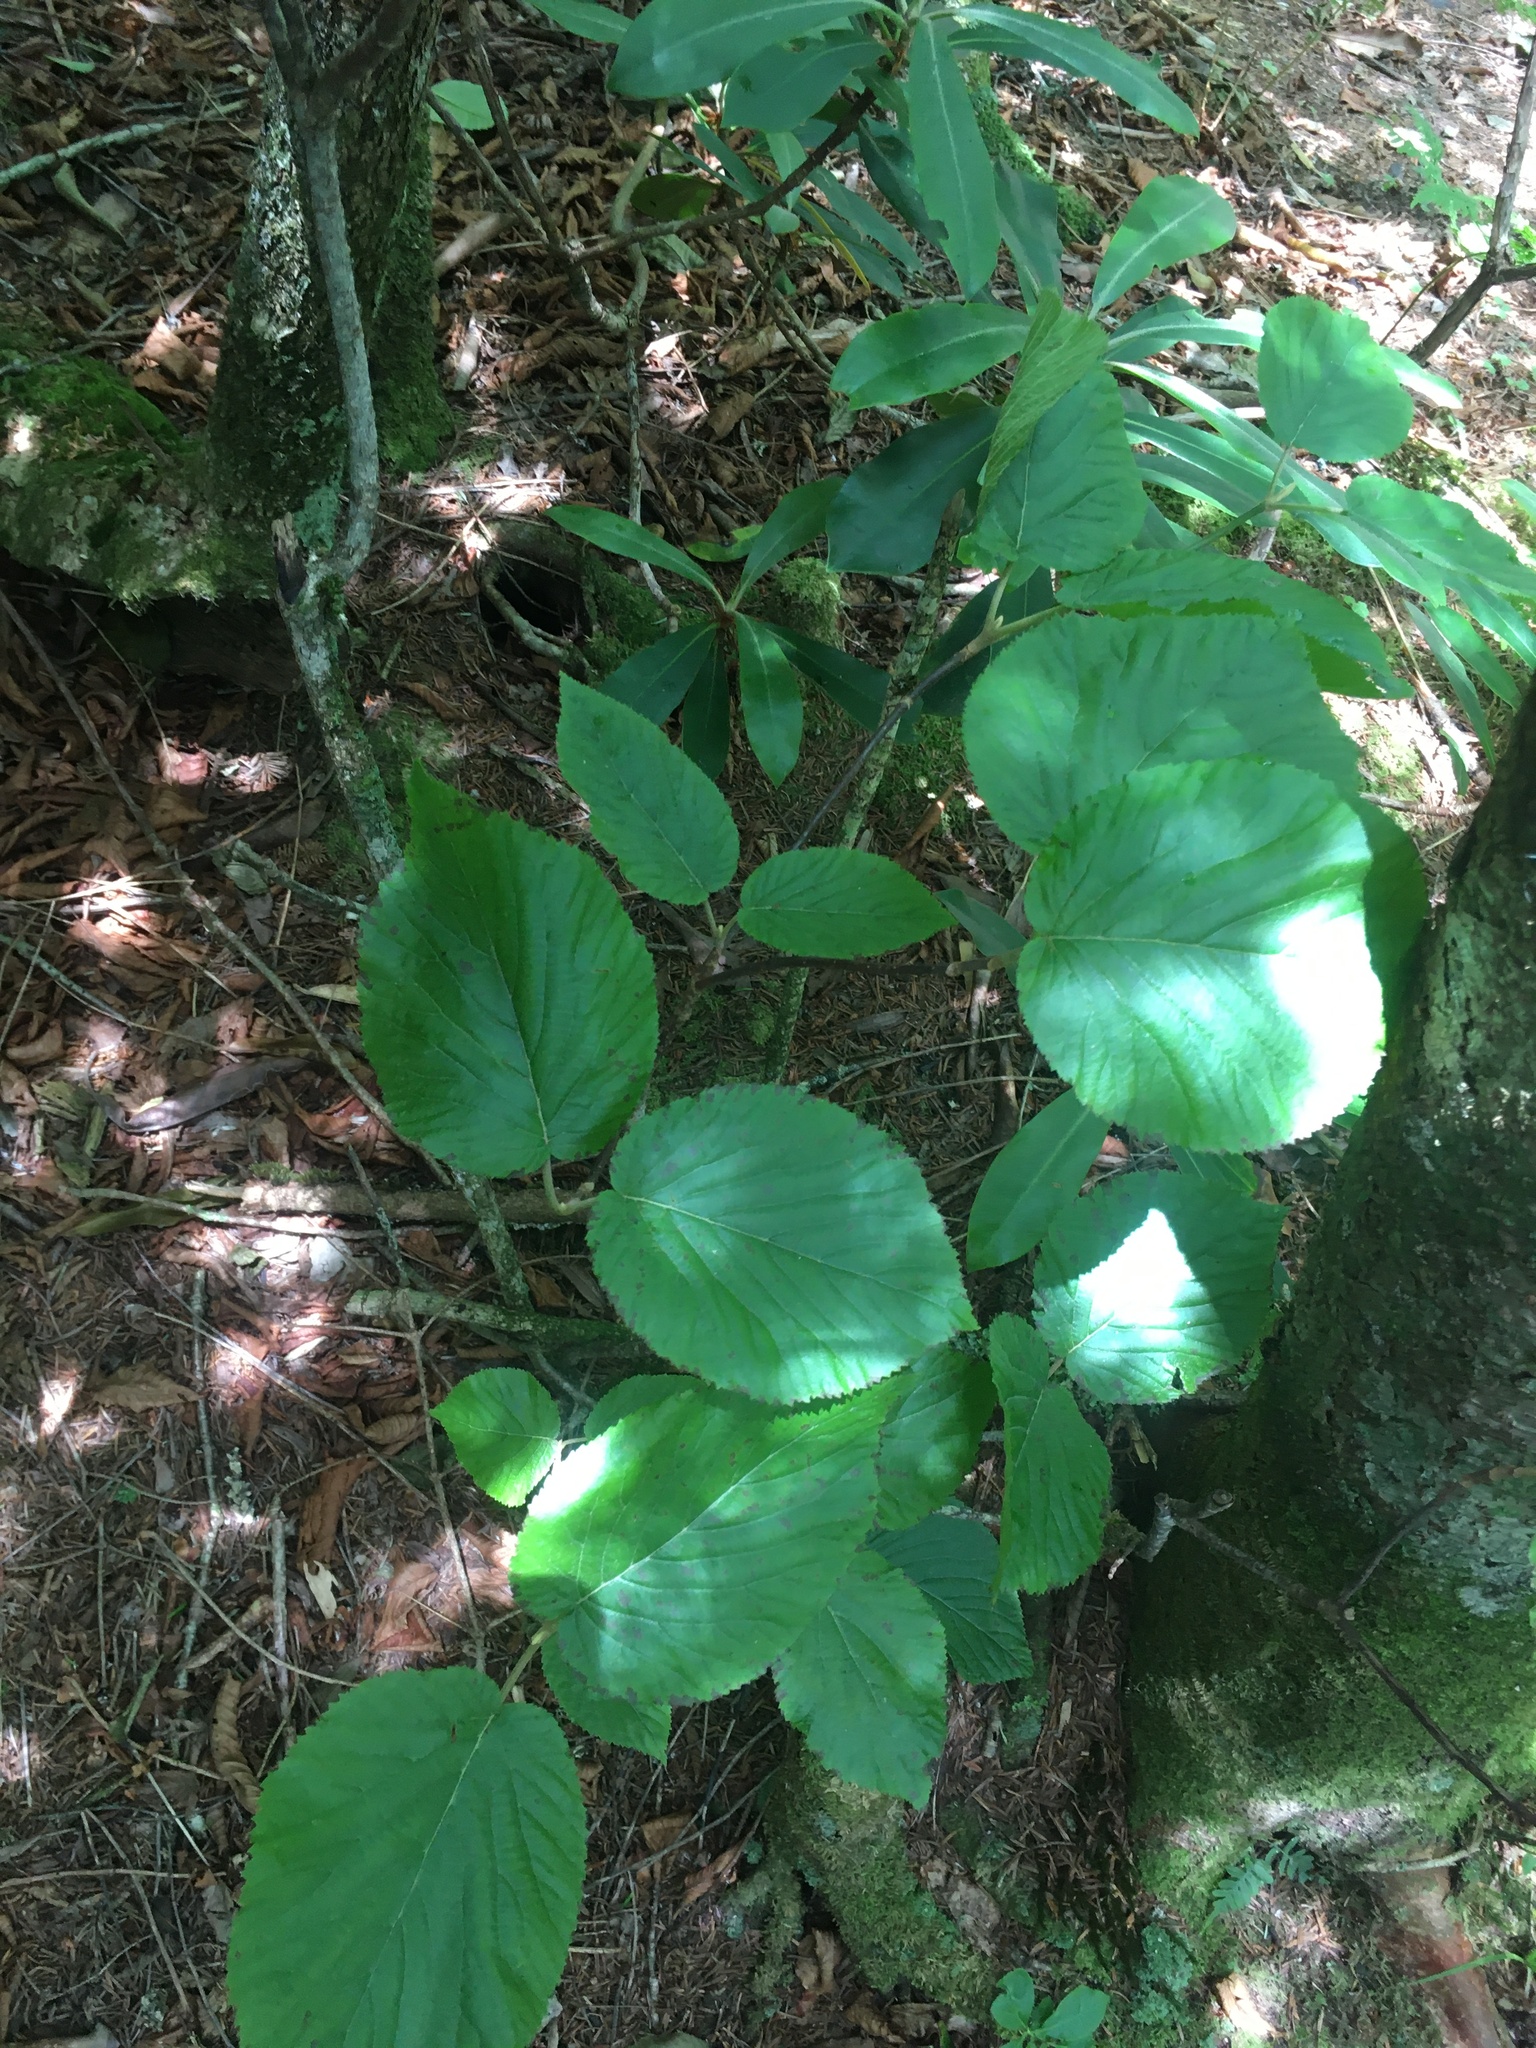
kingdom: Plantae
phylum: Tracheophyta
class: Magnoliopsida
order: Dipsacales
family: Viburnaceae
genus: Viburnum
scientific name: Viburnum lantanoides
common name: Hobblebush
